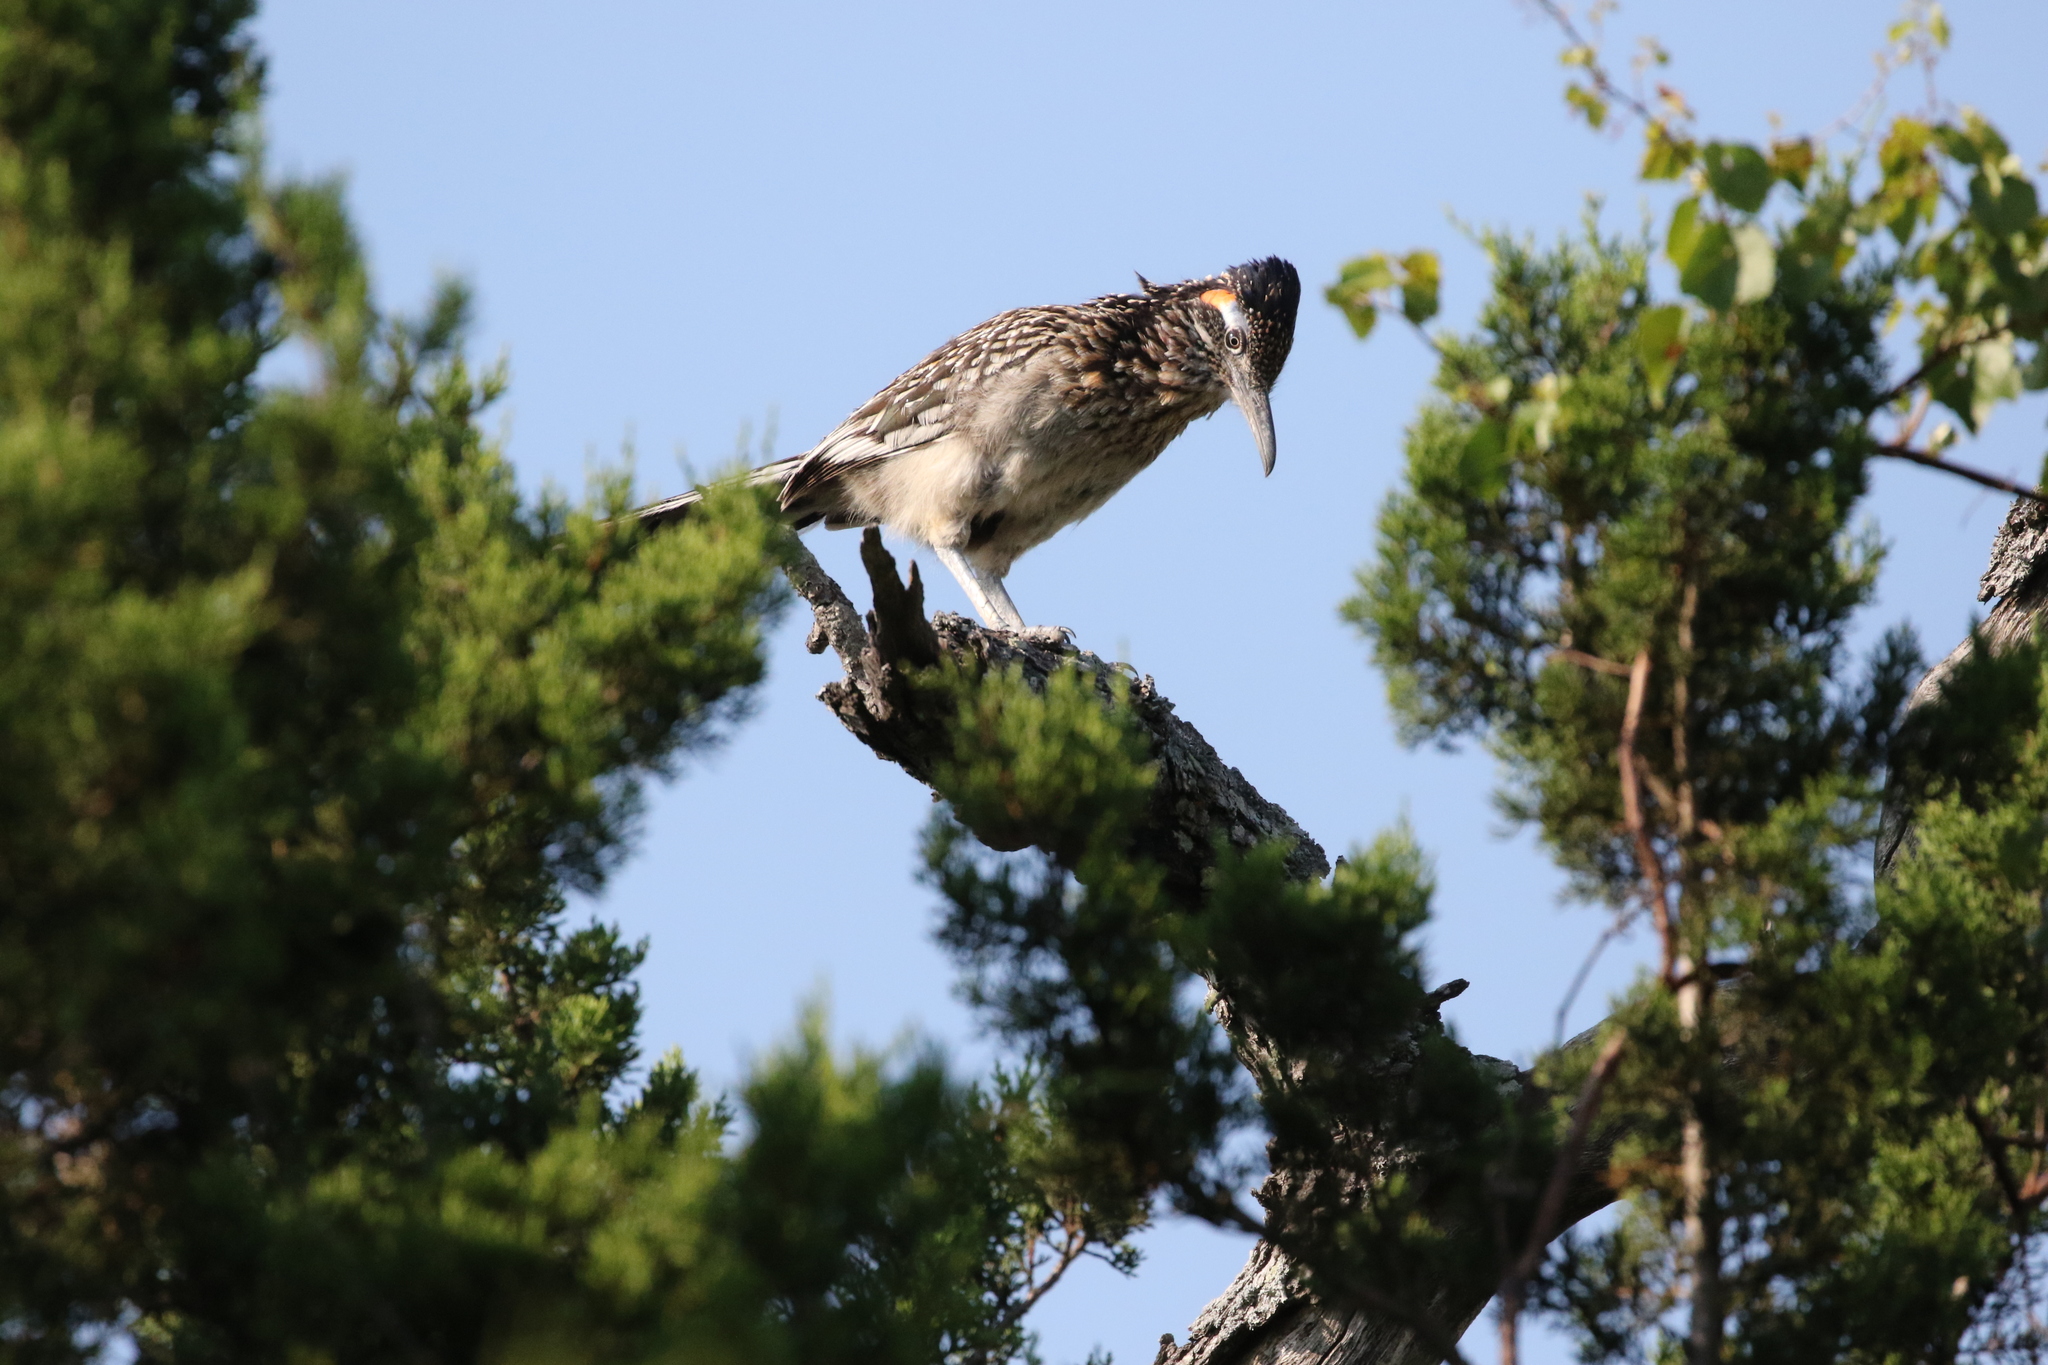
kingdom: Animalia
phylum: Chordata
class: Aves
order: Cuculiformes
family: Cuculidae
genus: Geococcyx
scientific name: Geococcyx californianus
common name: Greater roadrunner
